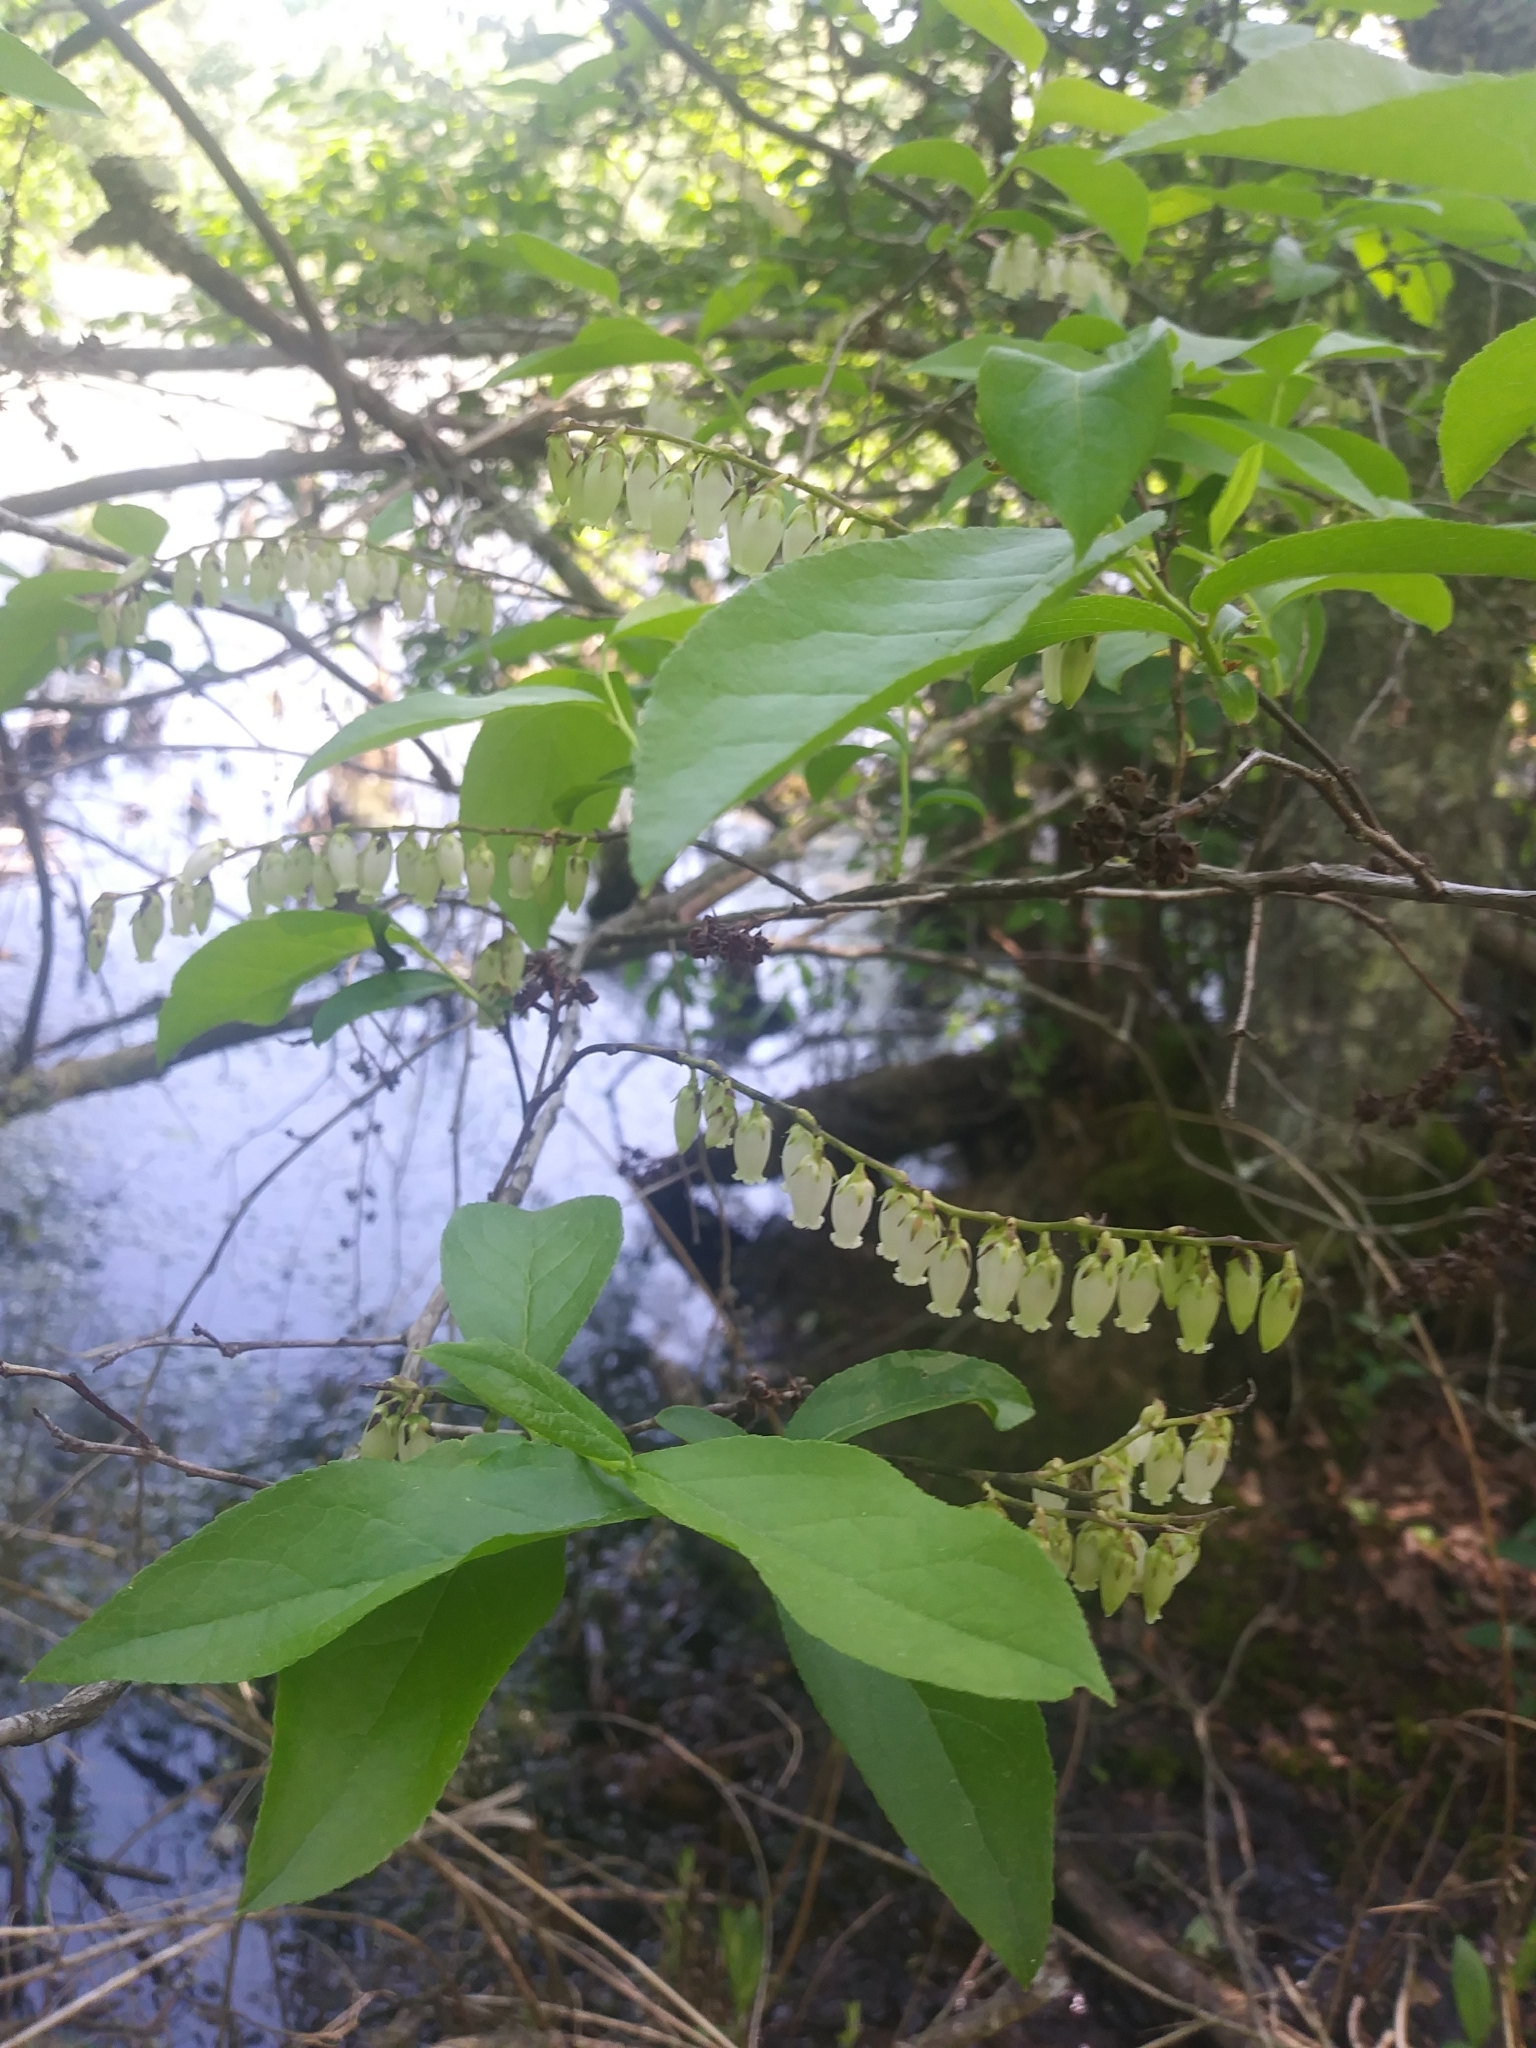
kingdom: Plantae
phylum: Tracheophyta
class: Magnoliopsida
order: Ericales
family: Ericaceae
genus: Eubotrys
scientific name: Eubotrys racemosa
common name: Fetterbush
